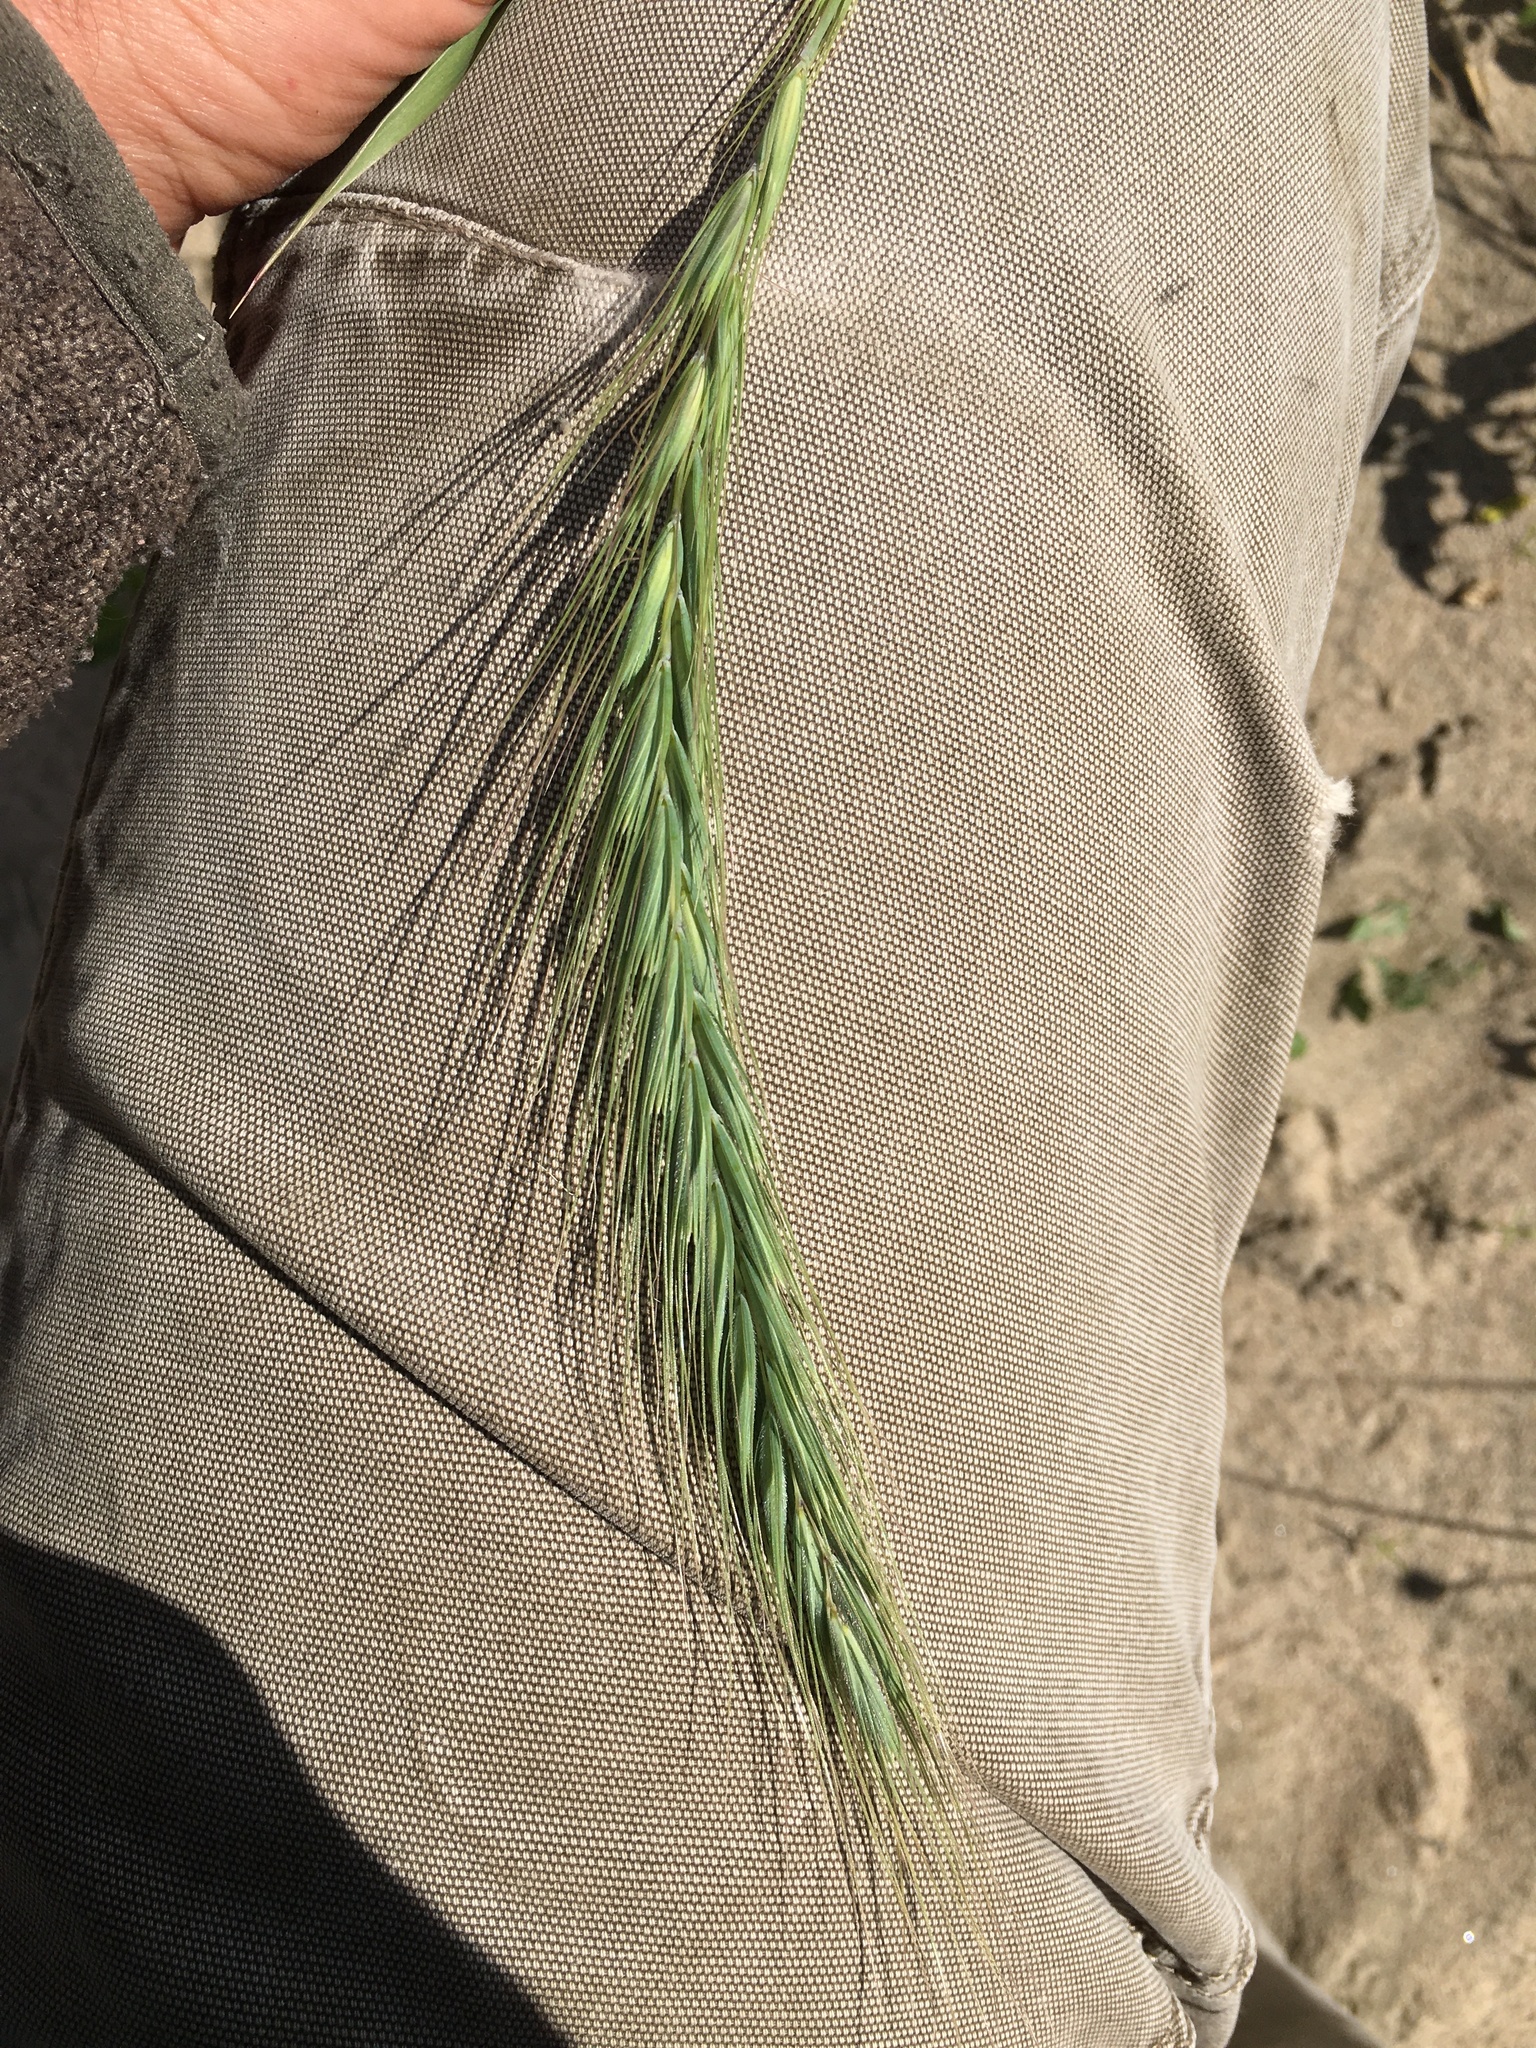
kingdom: Plantae
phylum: Tracheophyta
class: Liliopsida
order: Poales
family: Poaceae
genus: Elymus
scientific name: Elymus canadensis
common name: Canada wild rye
